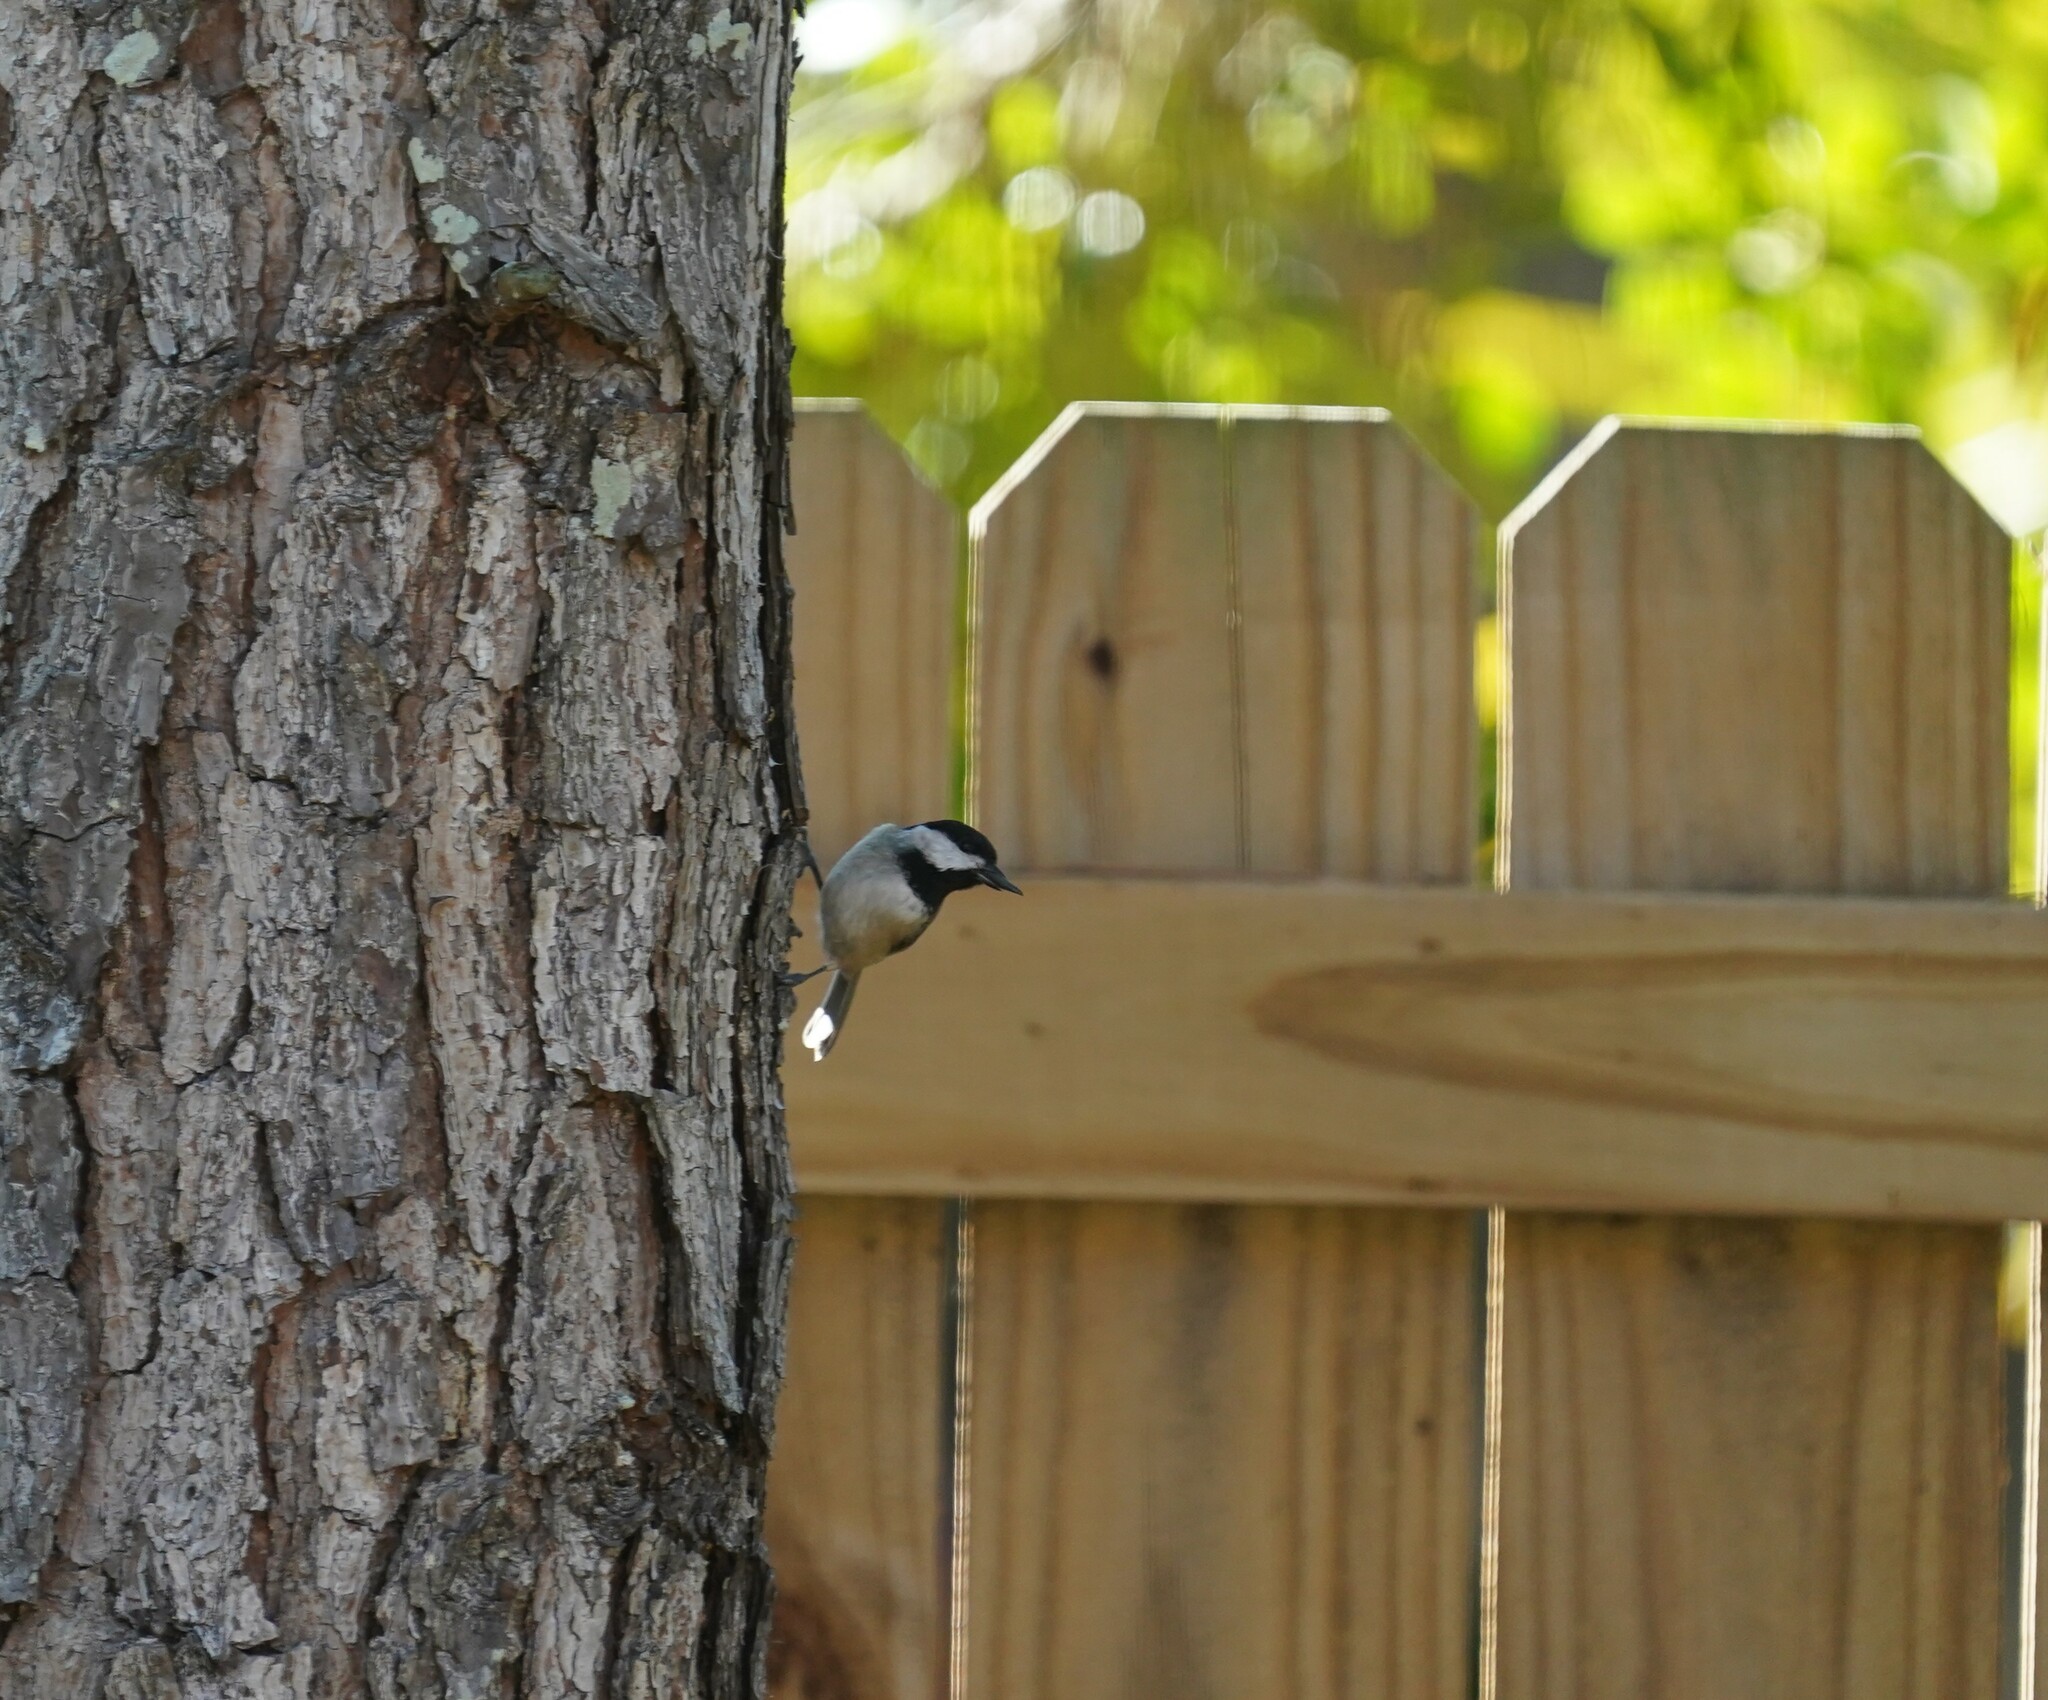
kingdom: Animalia
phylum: Chordata
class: Aves
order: Passeriformes
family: Paridae
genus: Poecile
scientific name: Poecile carolinensis
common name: Carolina chickadee
